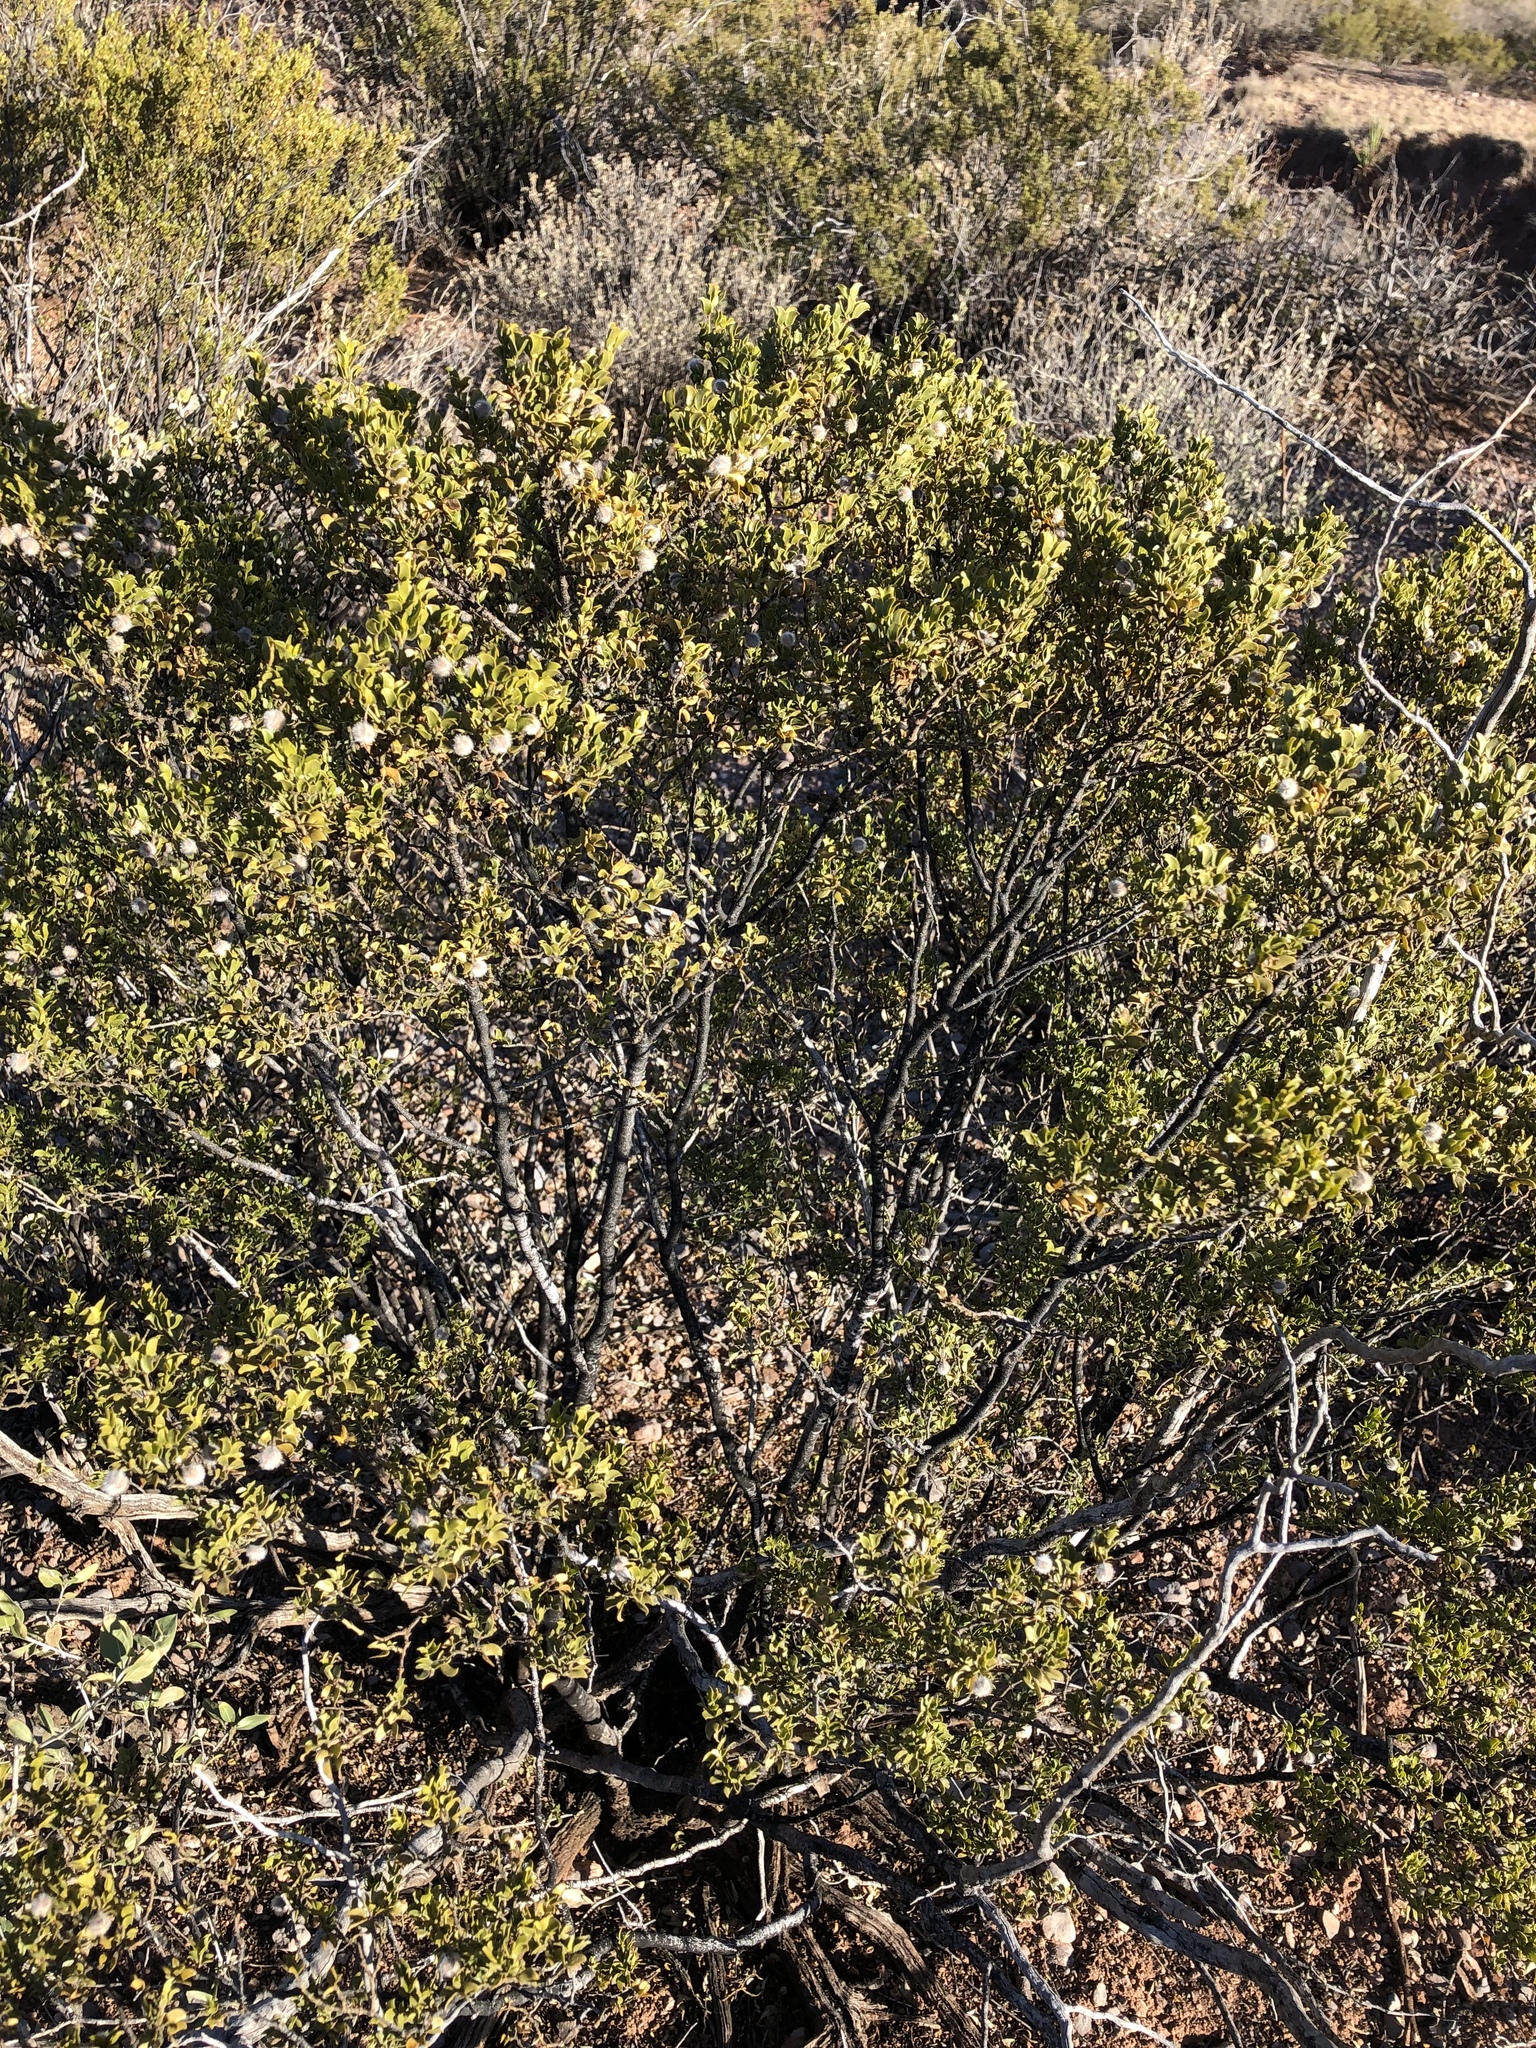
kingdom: Plantae
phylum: Tracheophyta
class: Magnoliopsida
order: Zygophyllales
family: Zygophyllaceae
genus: Larrea
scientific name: Larrea tridentata
